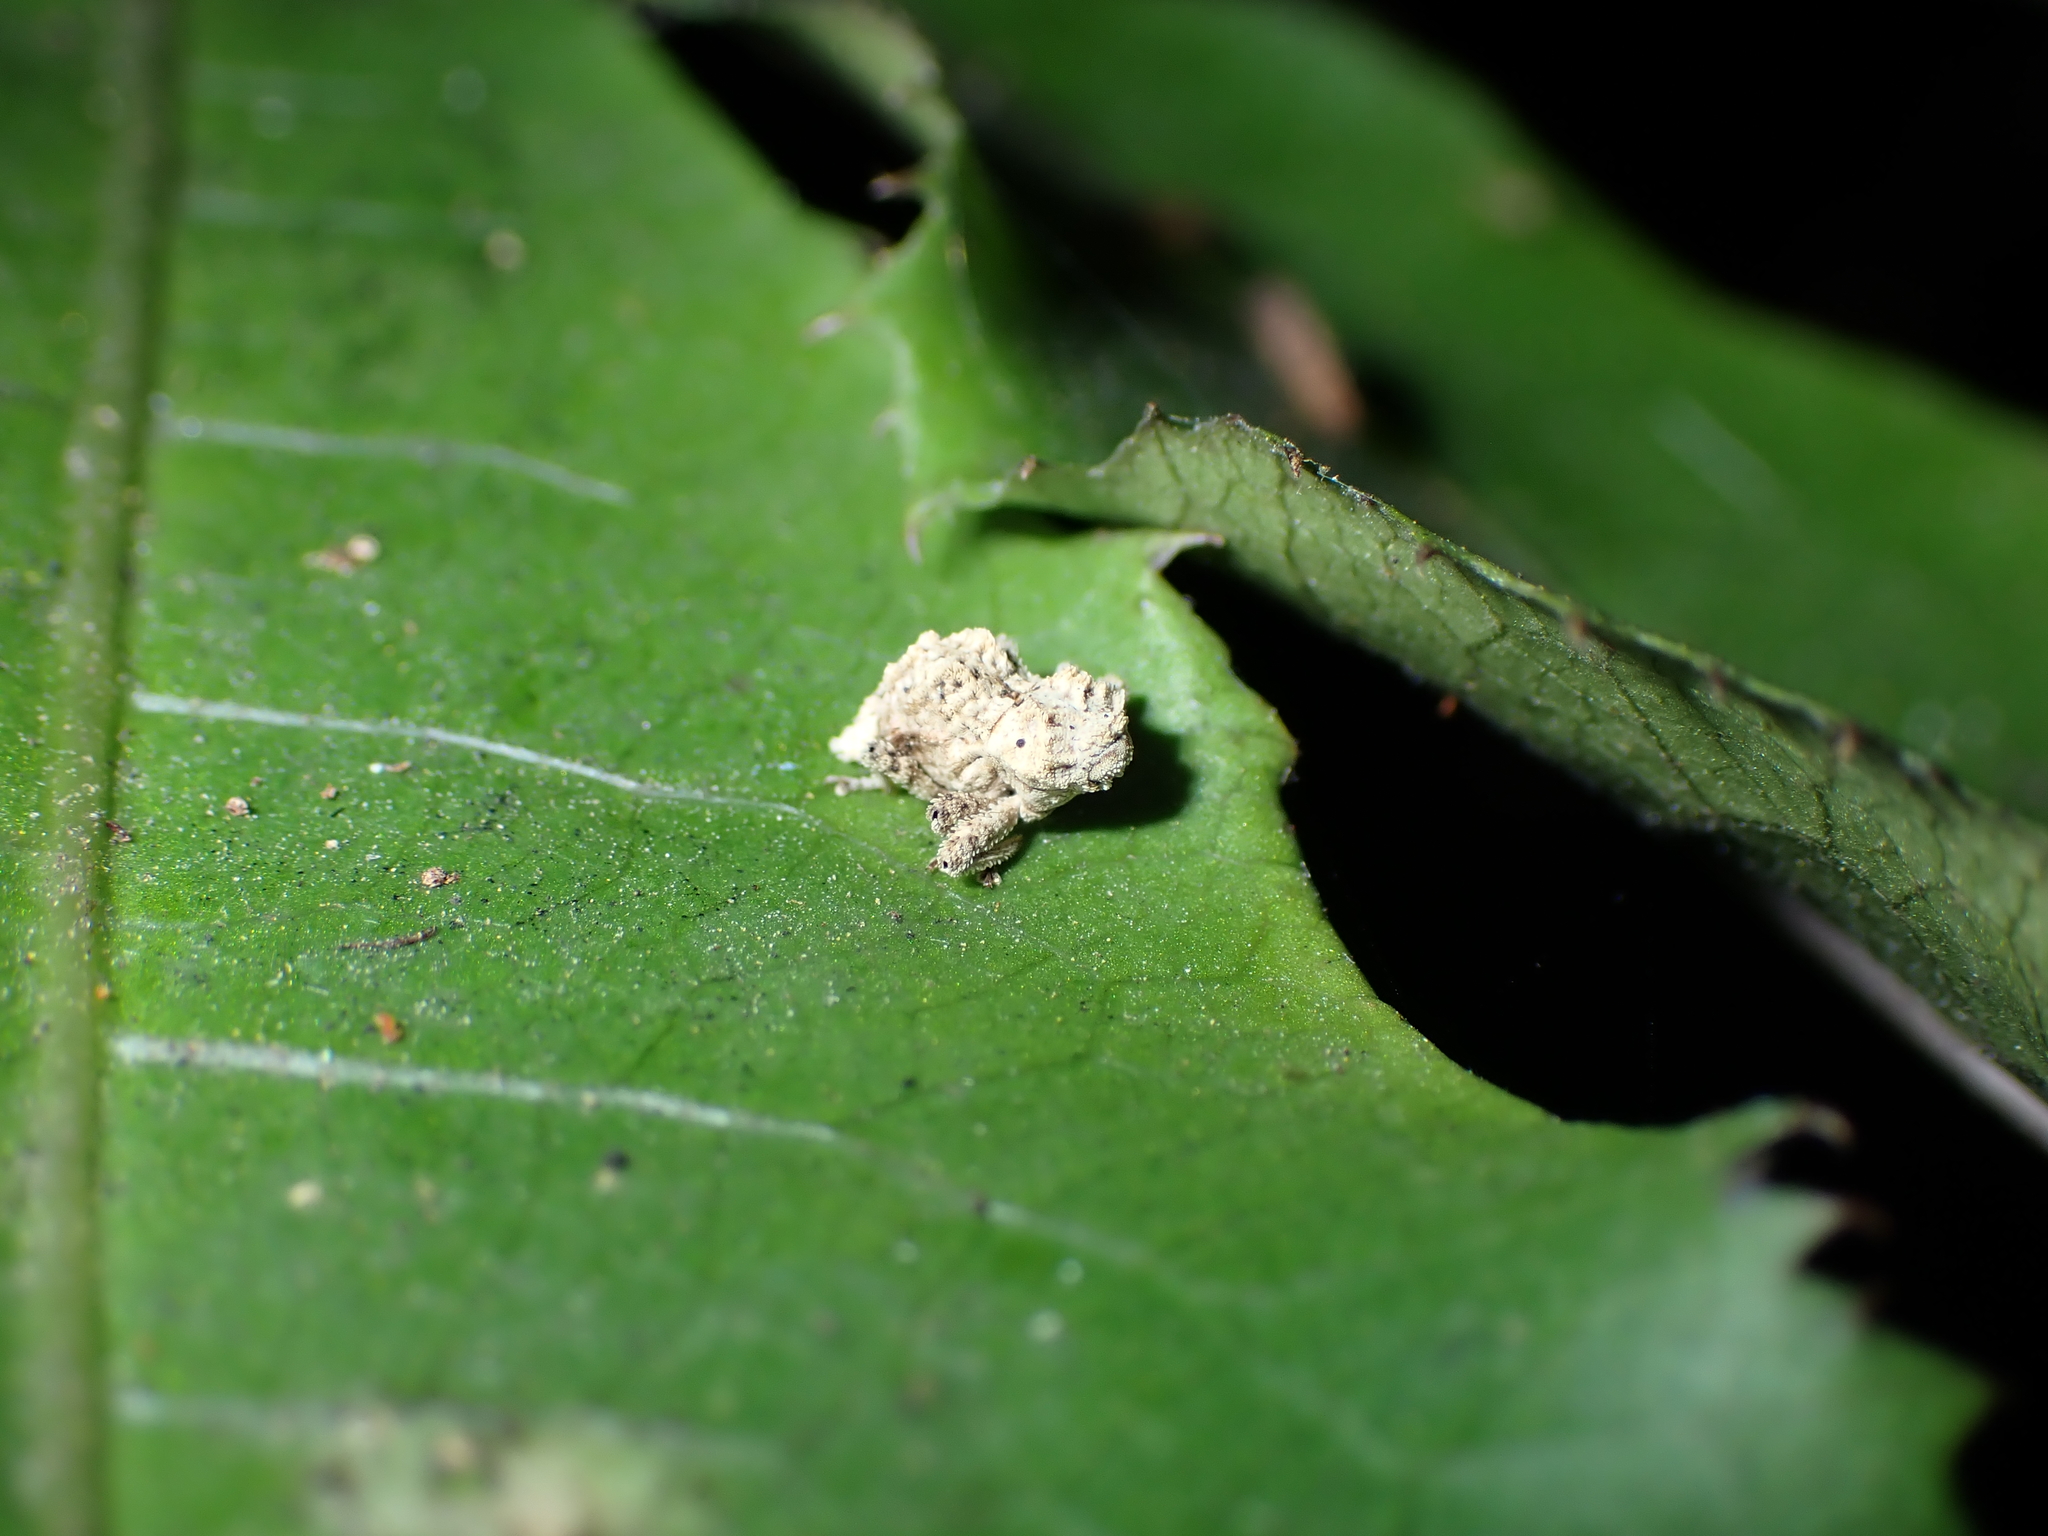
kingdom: Animalia
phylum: Arthropoda
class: Insecta
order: Coleoptera
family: Curculionidae
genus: Indecentia
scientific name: Indecentia nubila
